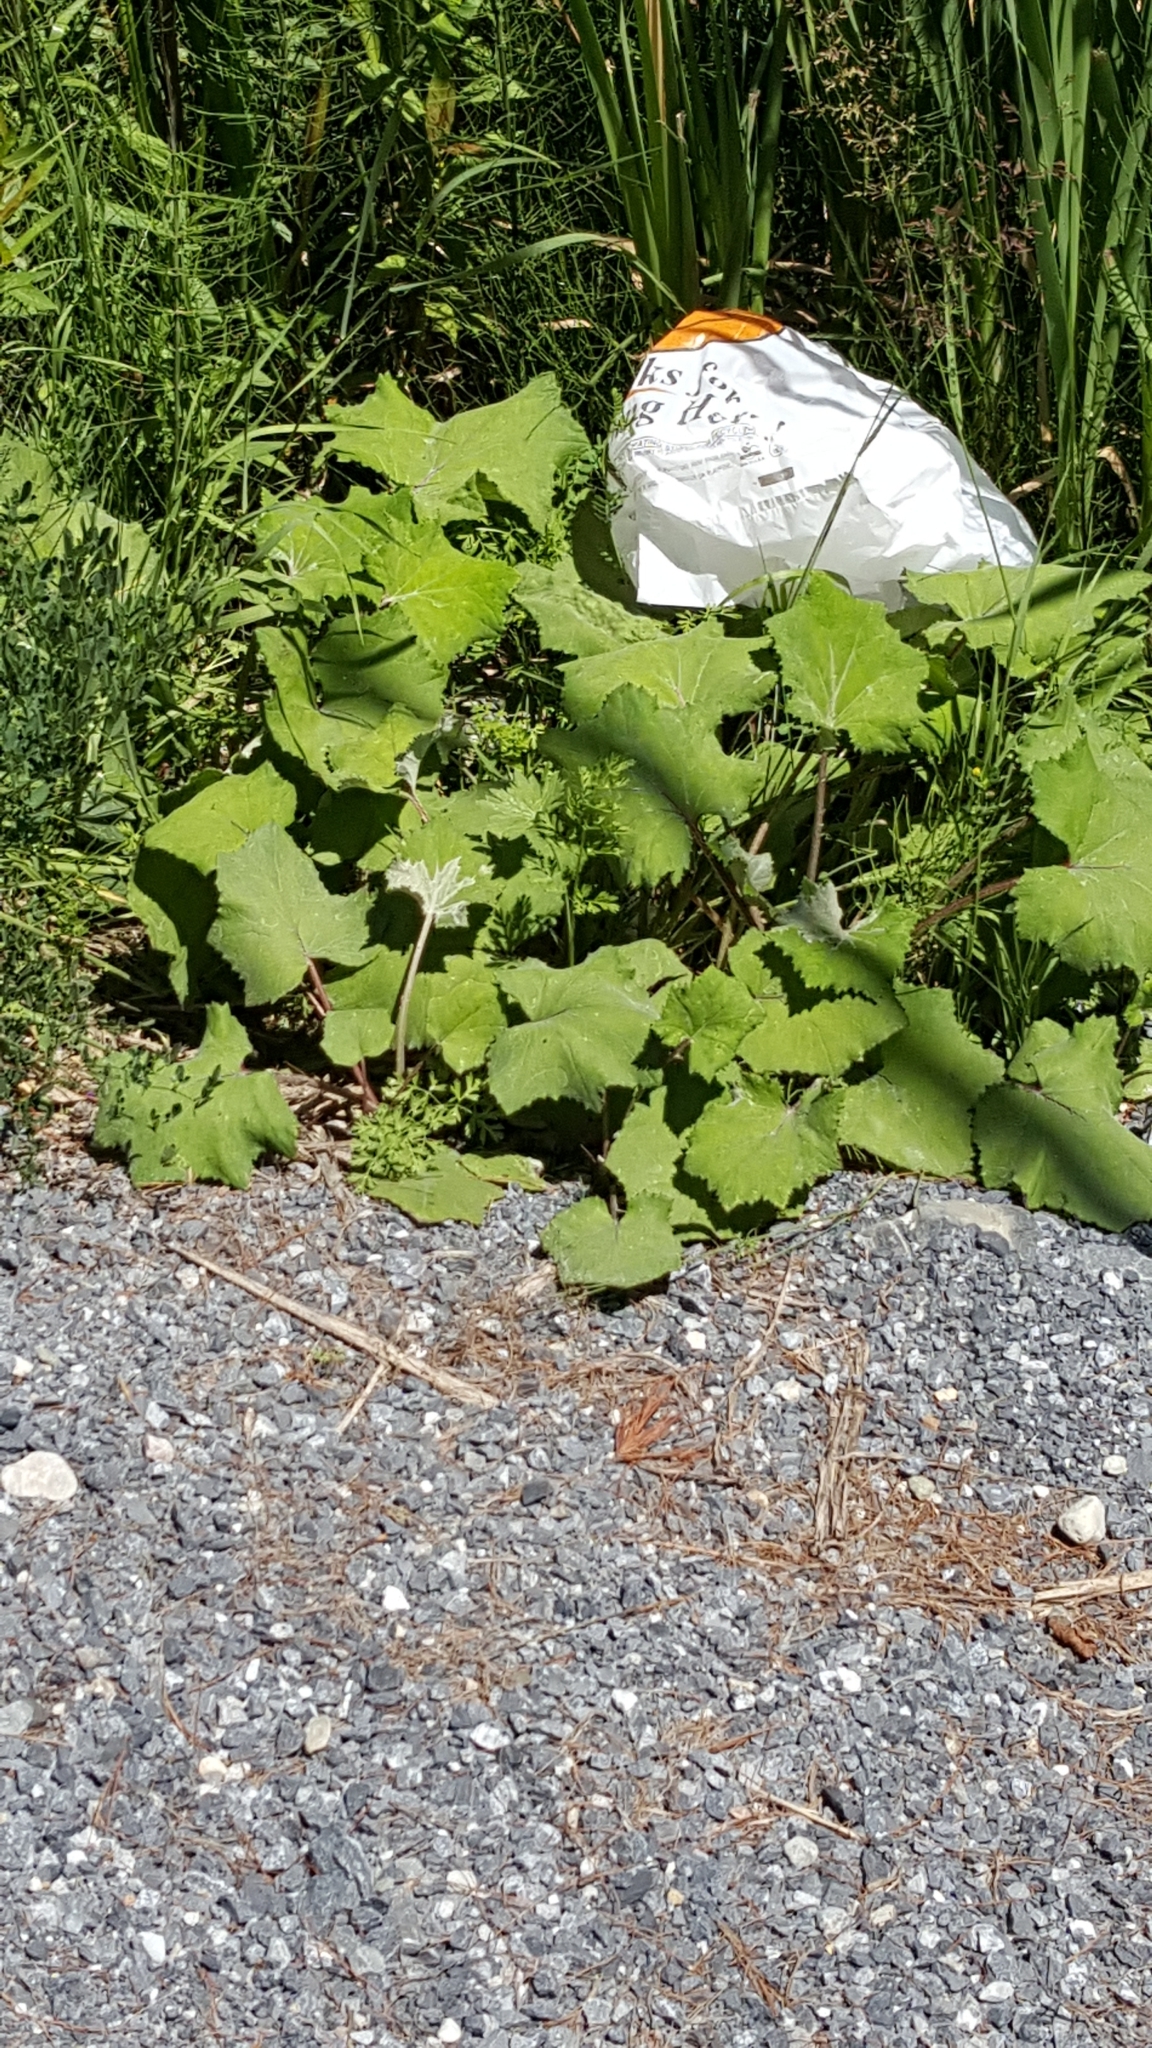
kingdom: Plantae
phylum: Tracheophyta
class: Magnoliopsida
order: Asterales
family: Asteraceae
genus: Tussilago
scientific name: Tussilago farfara
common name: Coltsfoot
